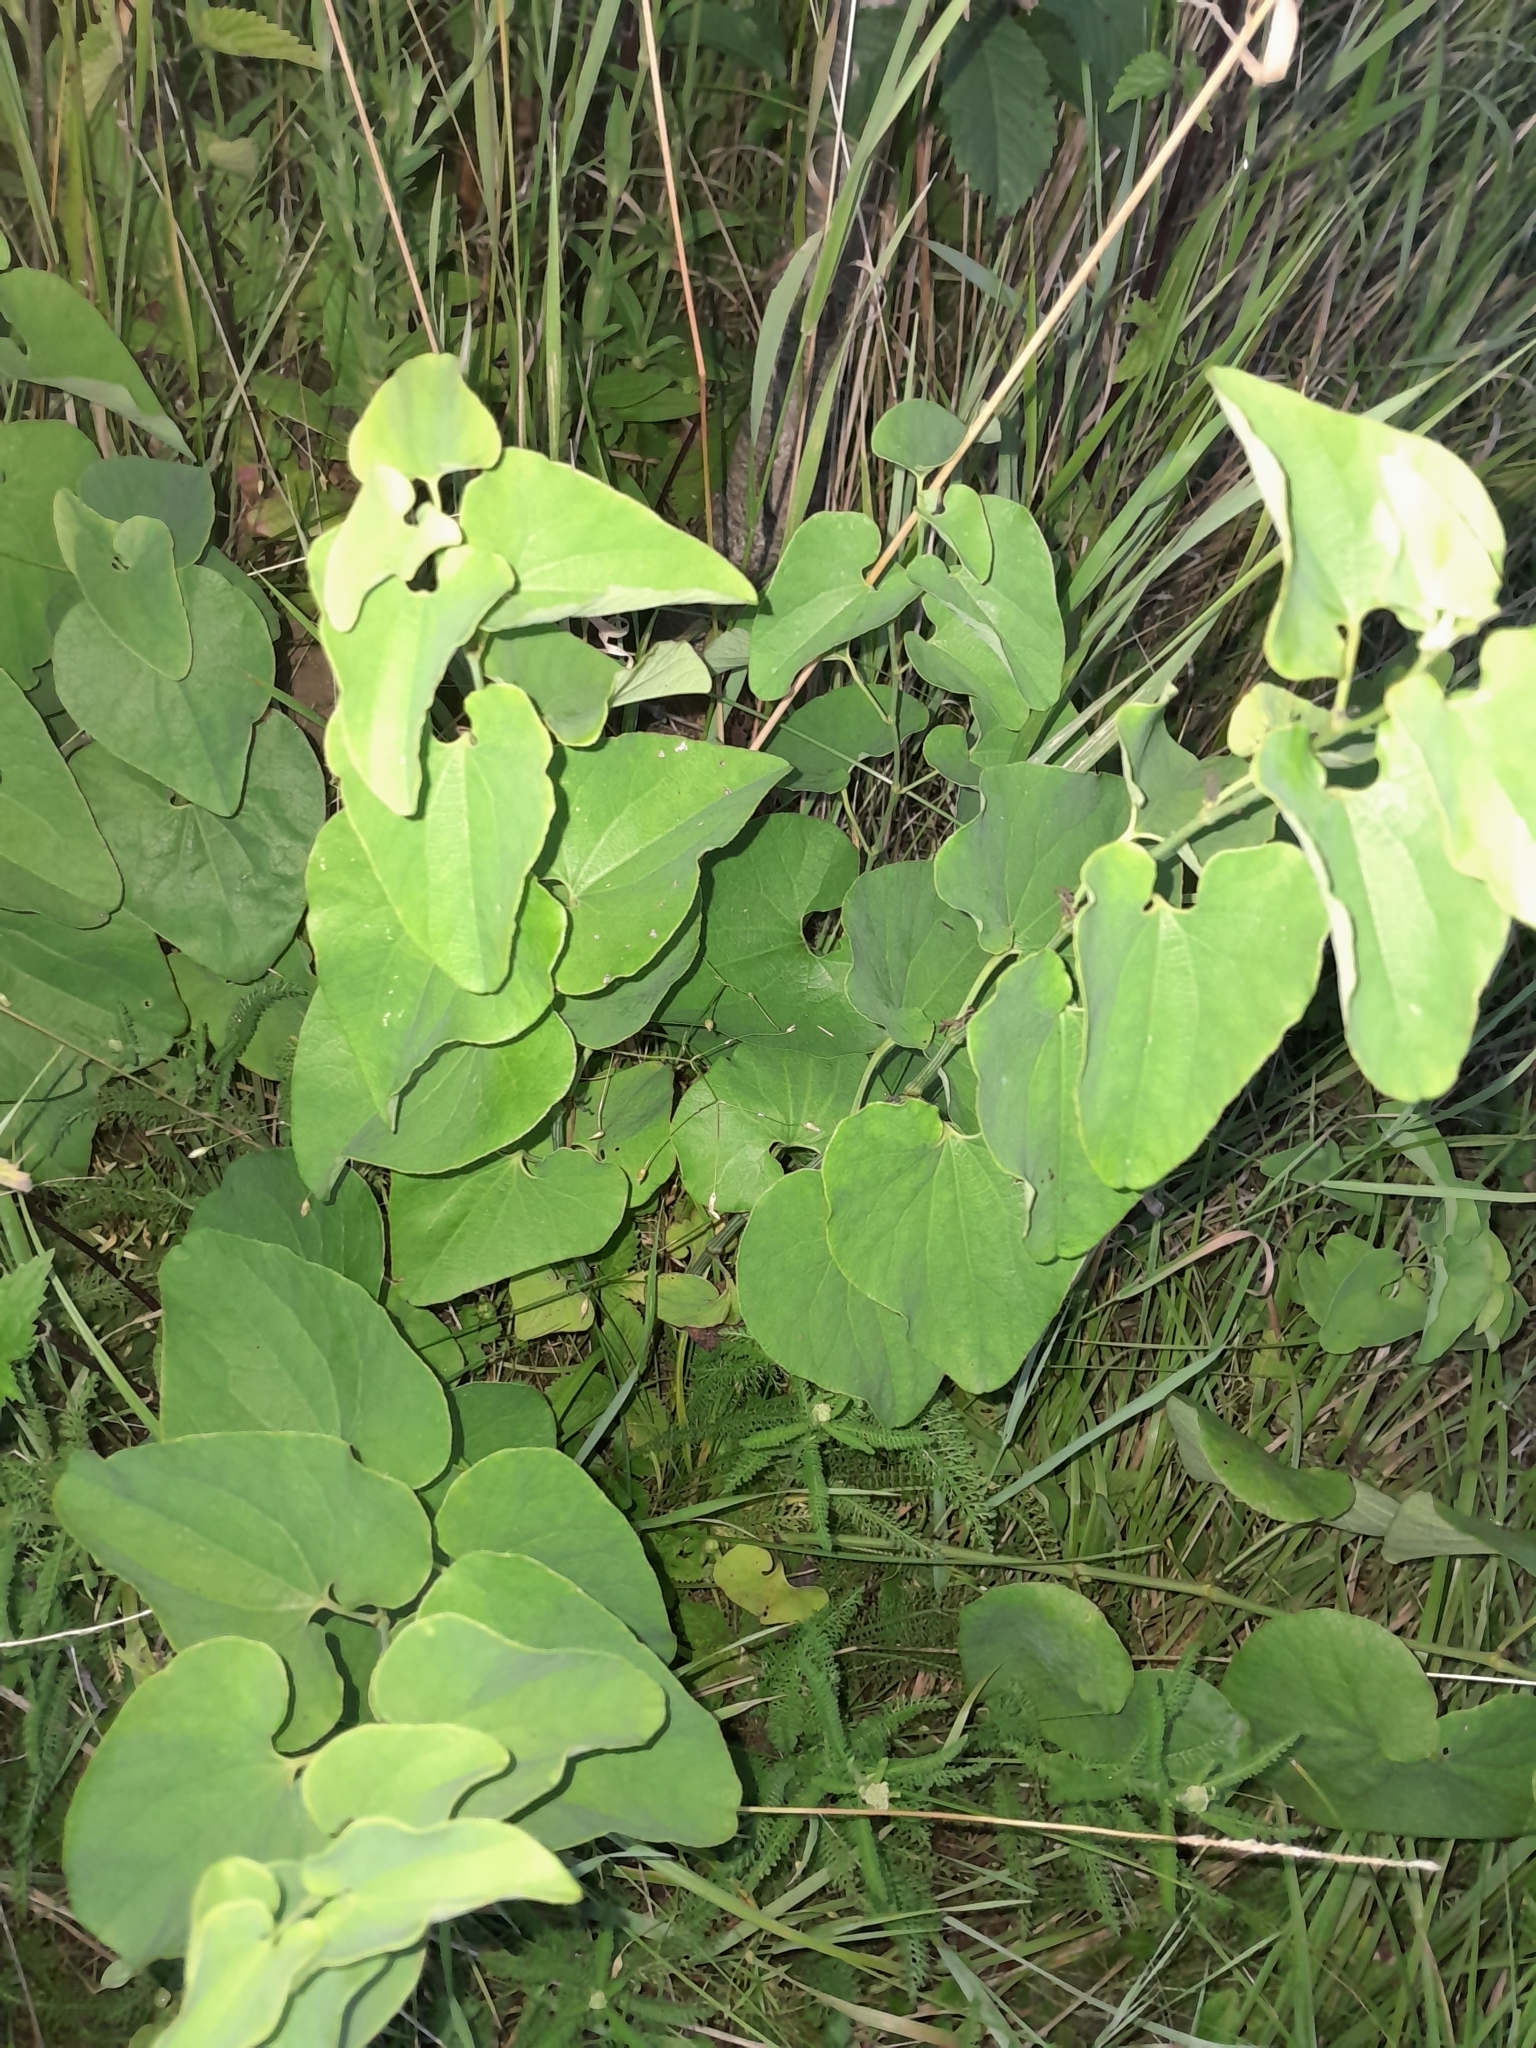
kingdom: Plantae
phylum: Tracheophyta
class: Magnoliopsida
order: Piperales
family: Aristolochiaceae
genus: Aristolochia
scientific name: Aristolochia clematitis
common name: Birthwort
